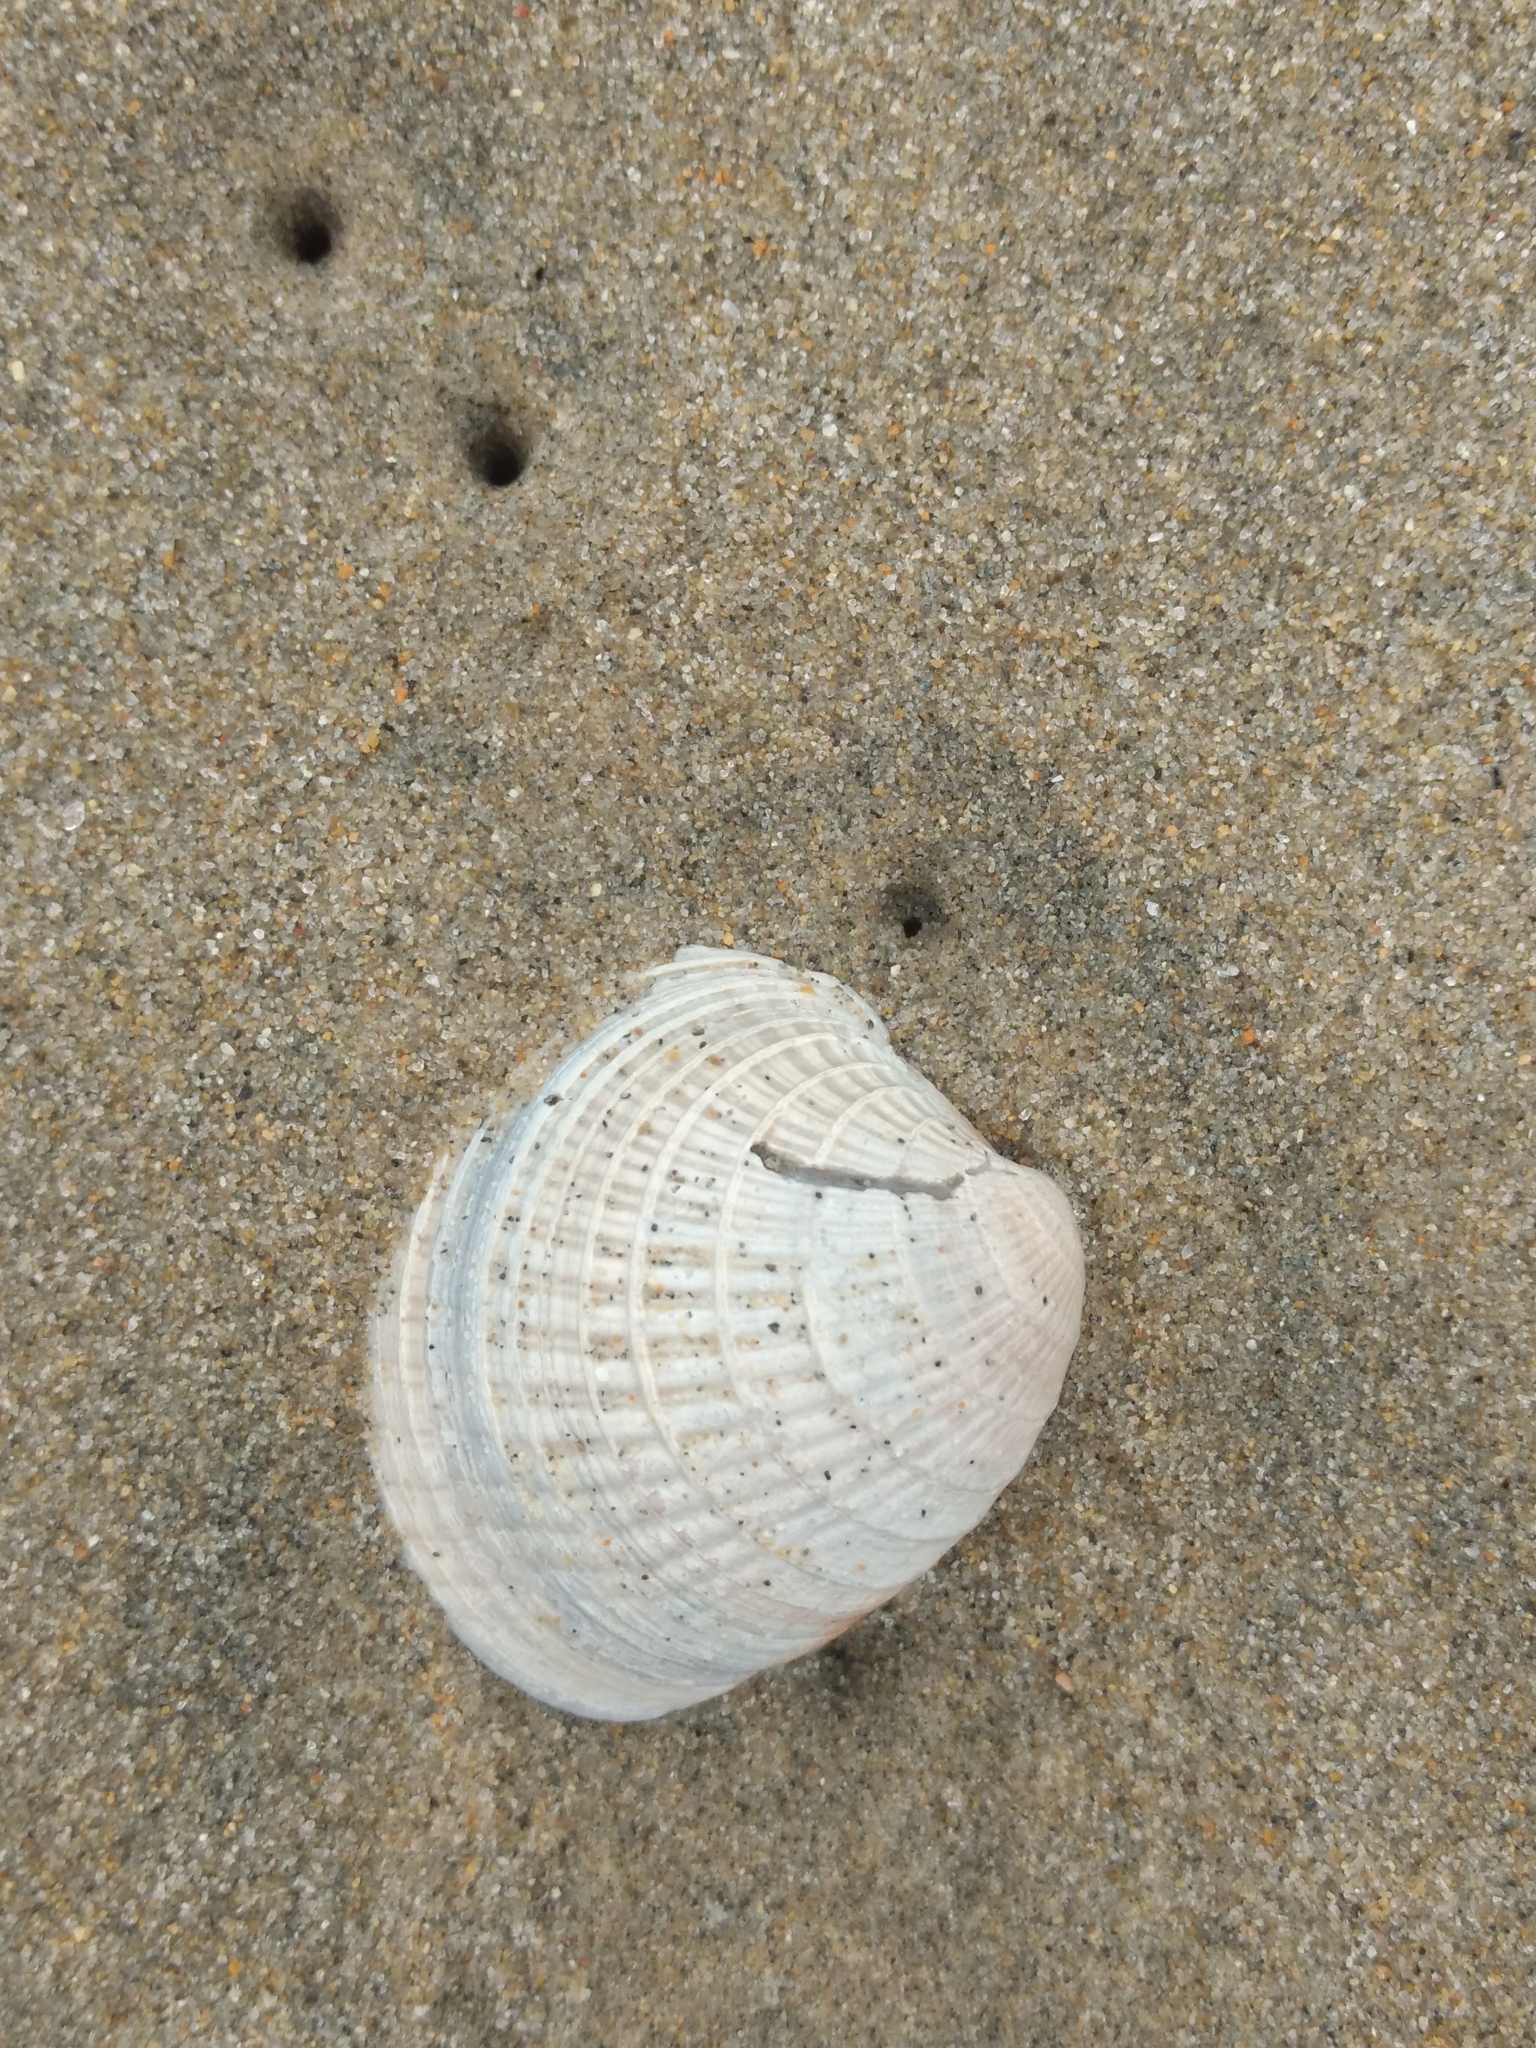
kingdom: Animalia
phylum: Mollusca
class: Bivalvia
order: Venerida
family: Veneridae
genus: Chione
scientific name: Chione californiensis
